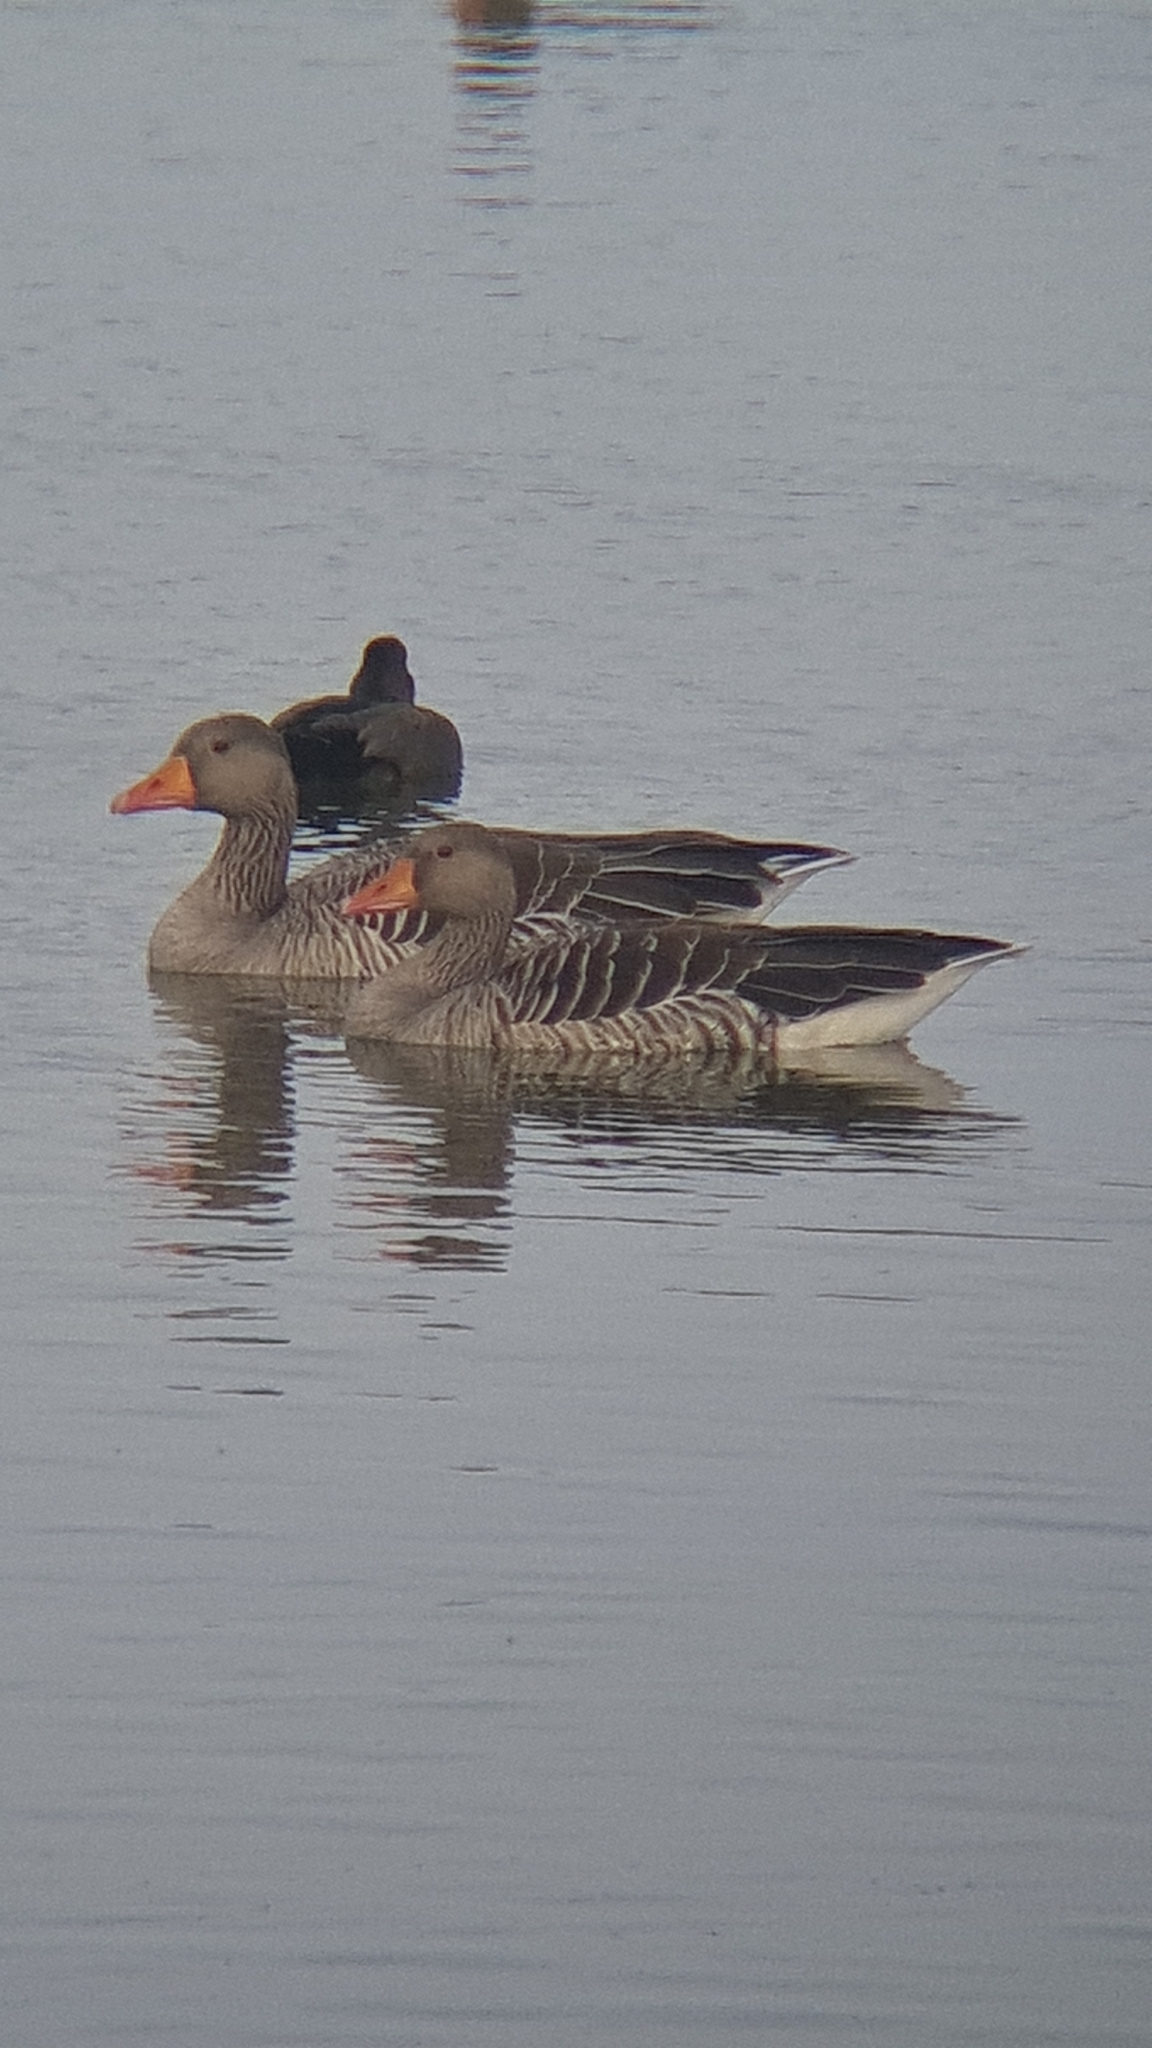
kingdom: Animalia
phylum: Chordata
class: Aves
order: Anseriformes
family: Anatidae
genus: Anser
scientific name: Anser anser
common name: Greylag goose
